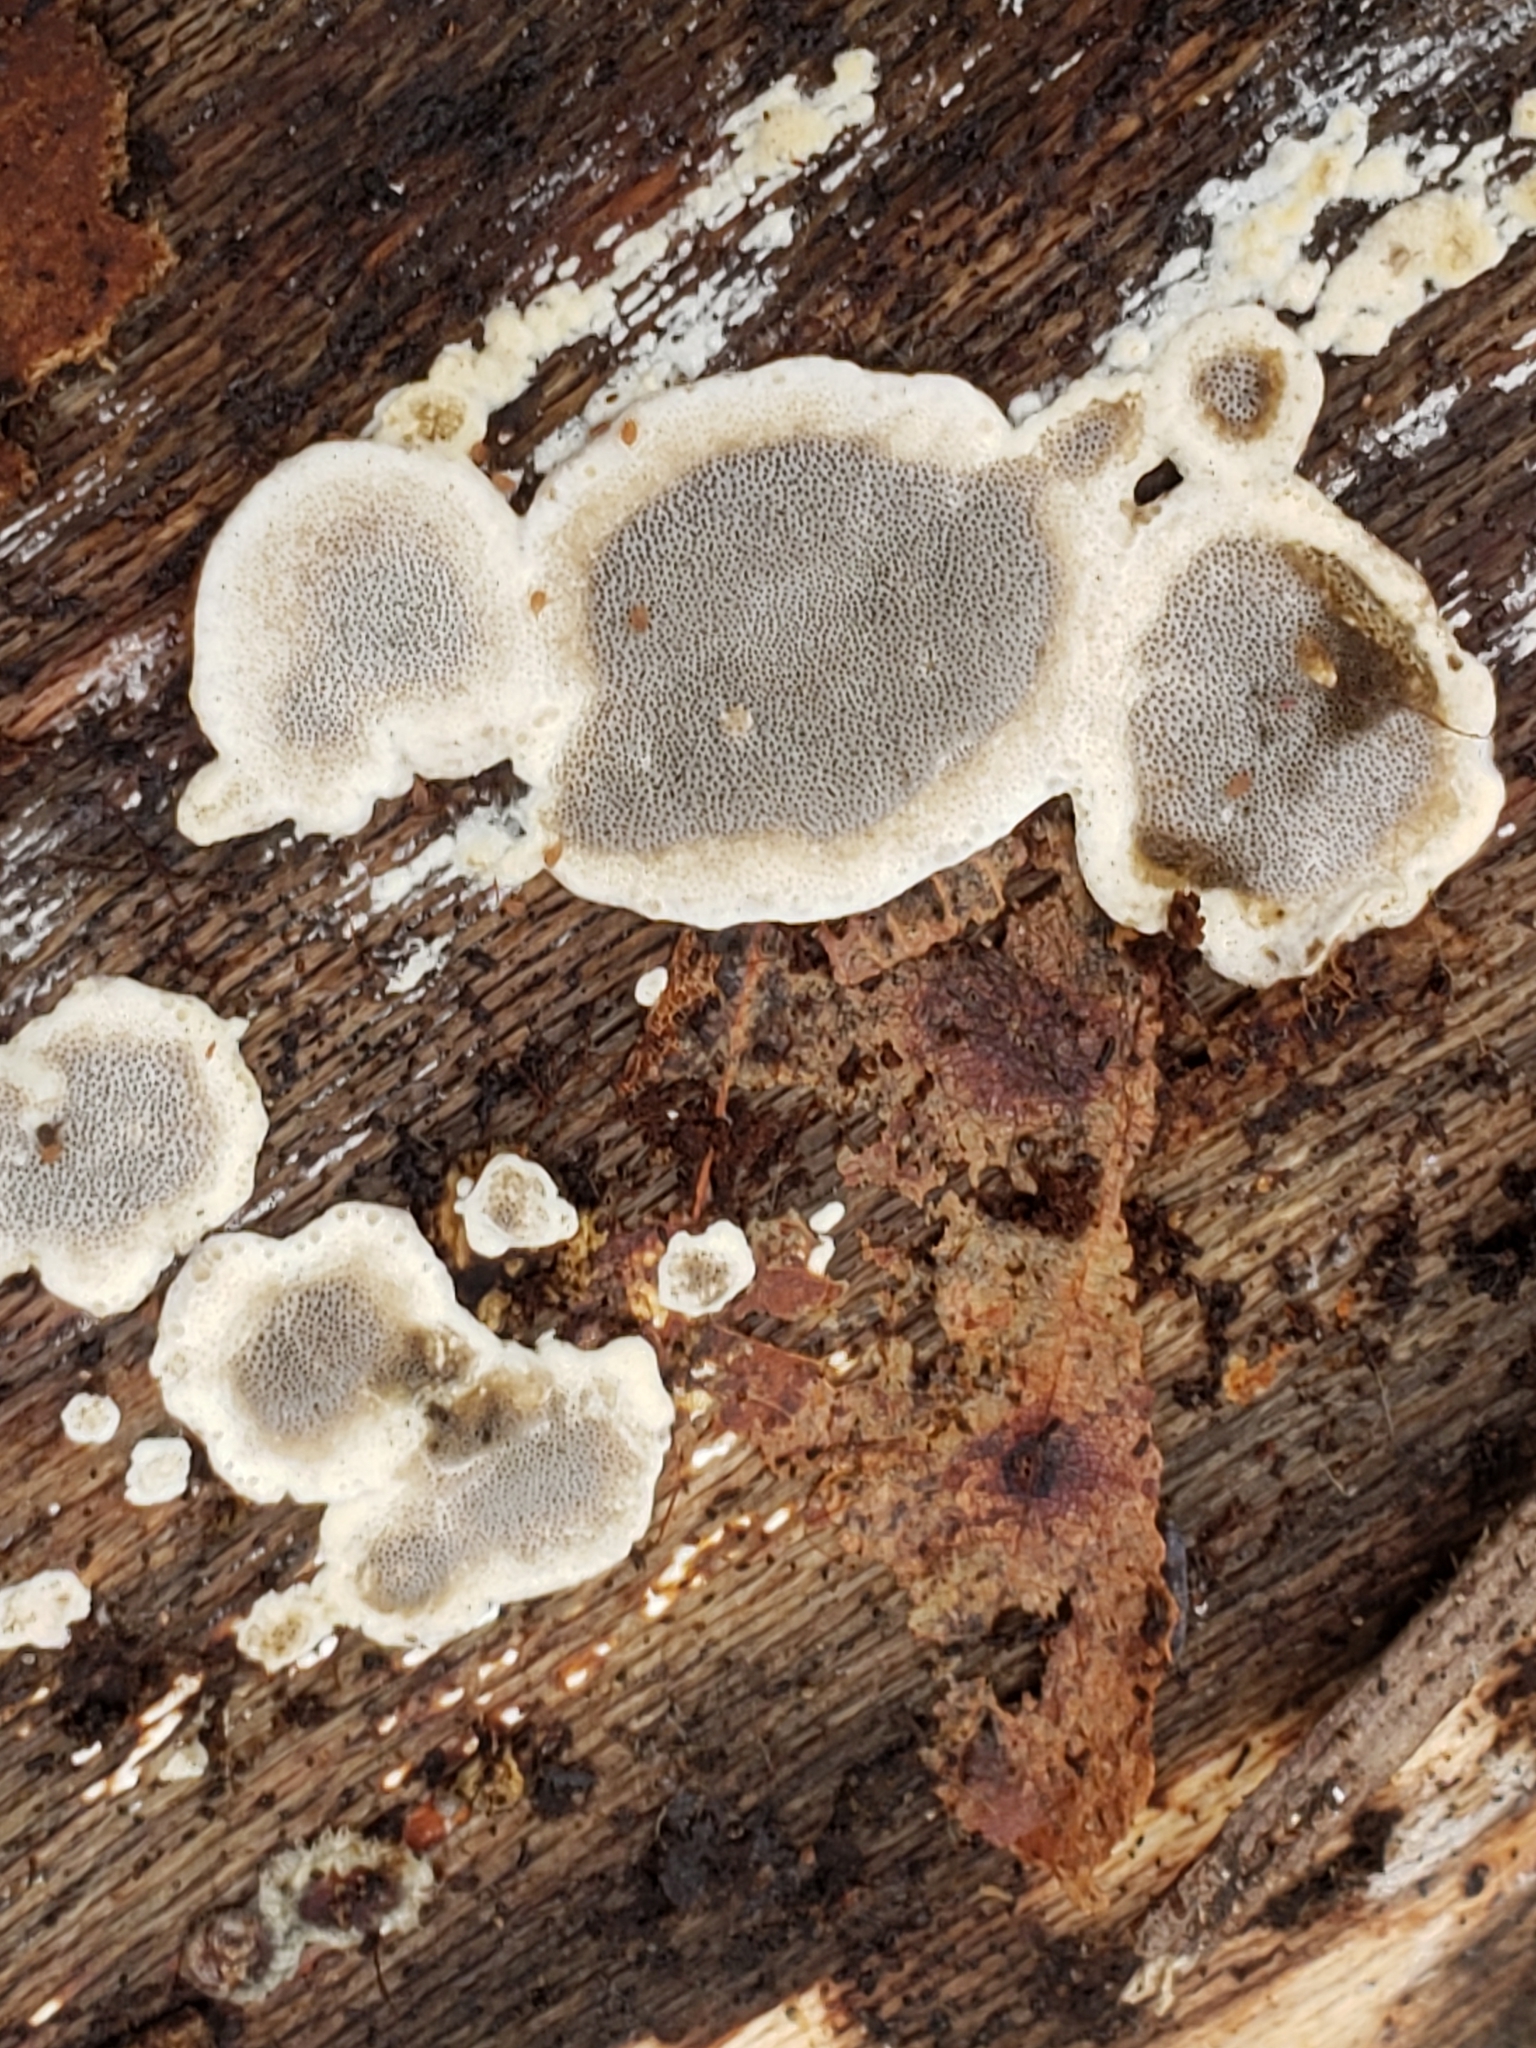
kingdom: Fungi
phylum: Basidiomycota
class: Agaricomycetes
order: Polyporales
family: Phanerochaetaceae
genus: Bjerkandera
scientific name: Bjerkandera adusta
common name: Smoky bracket
